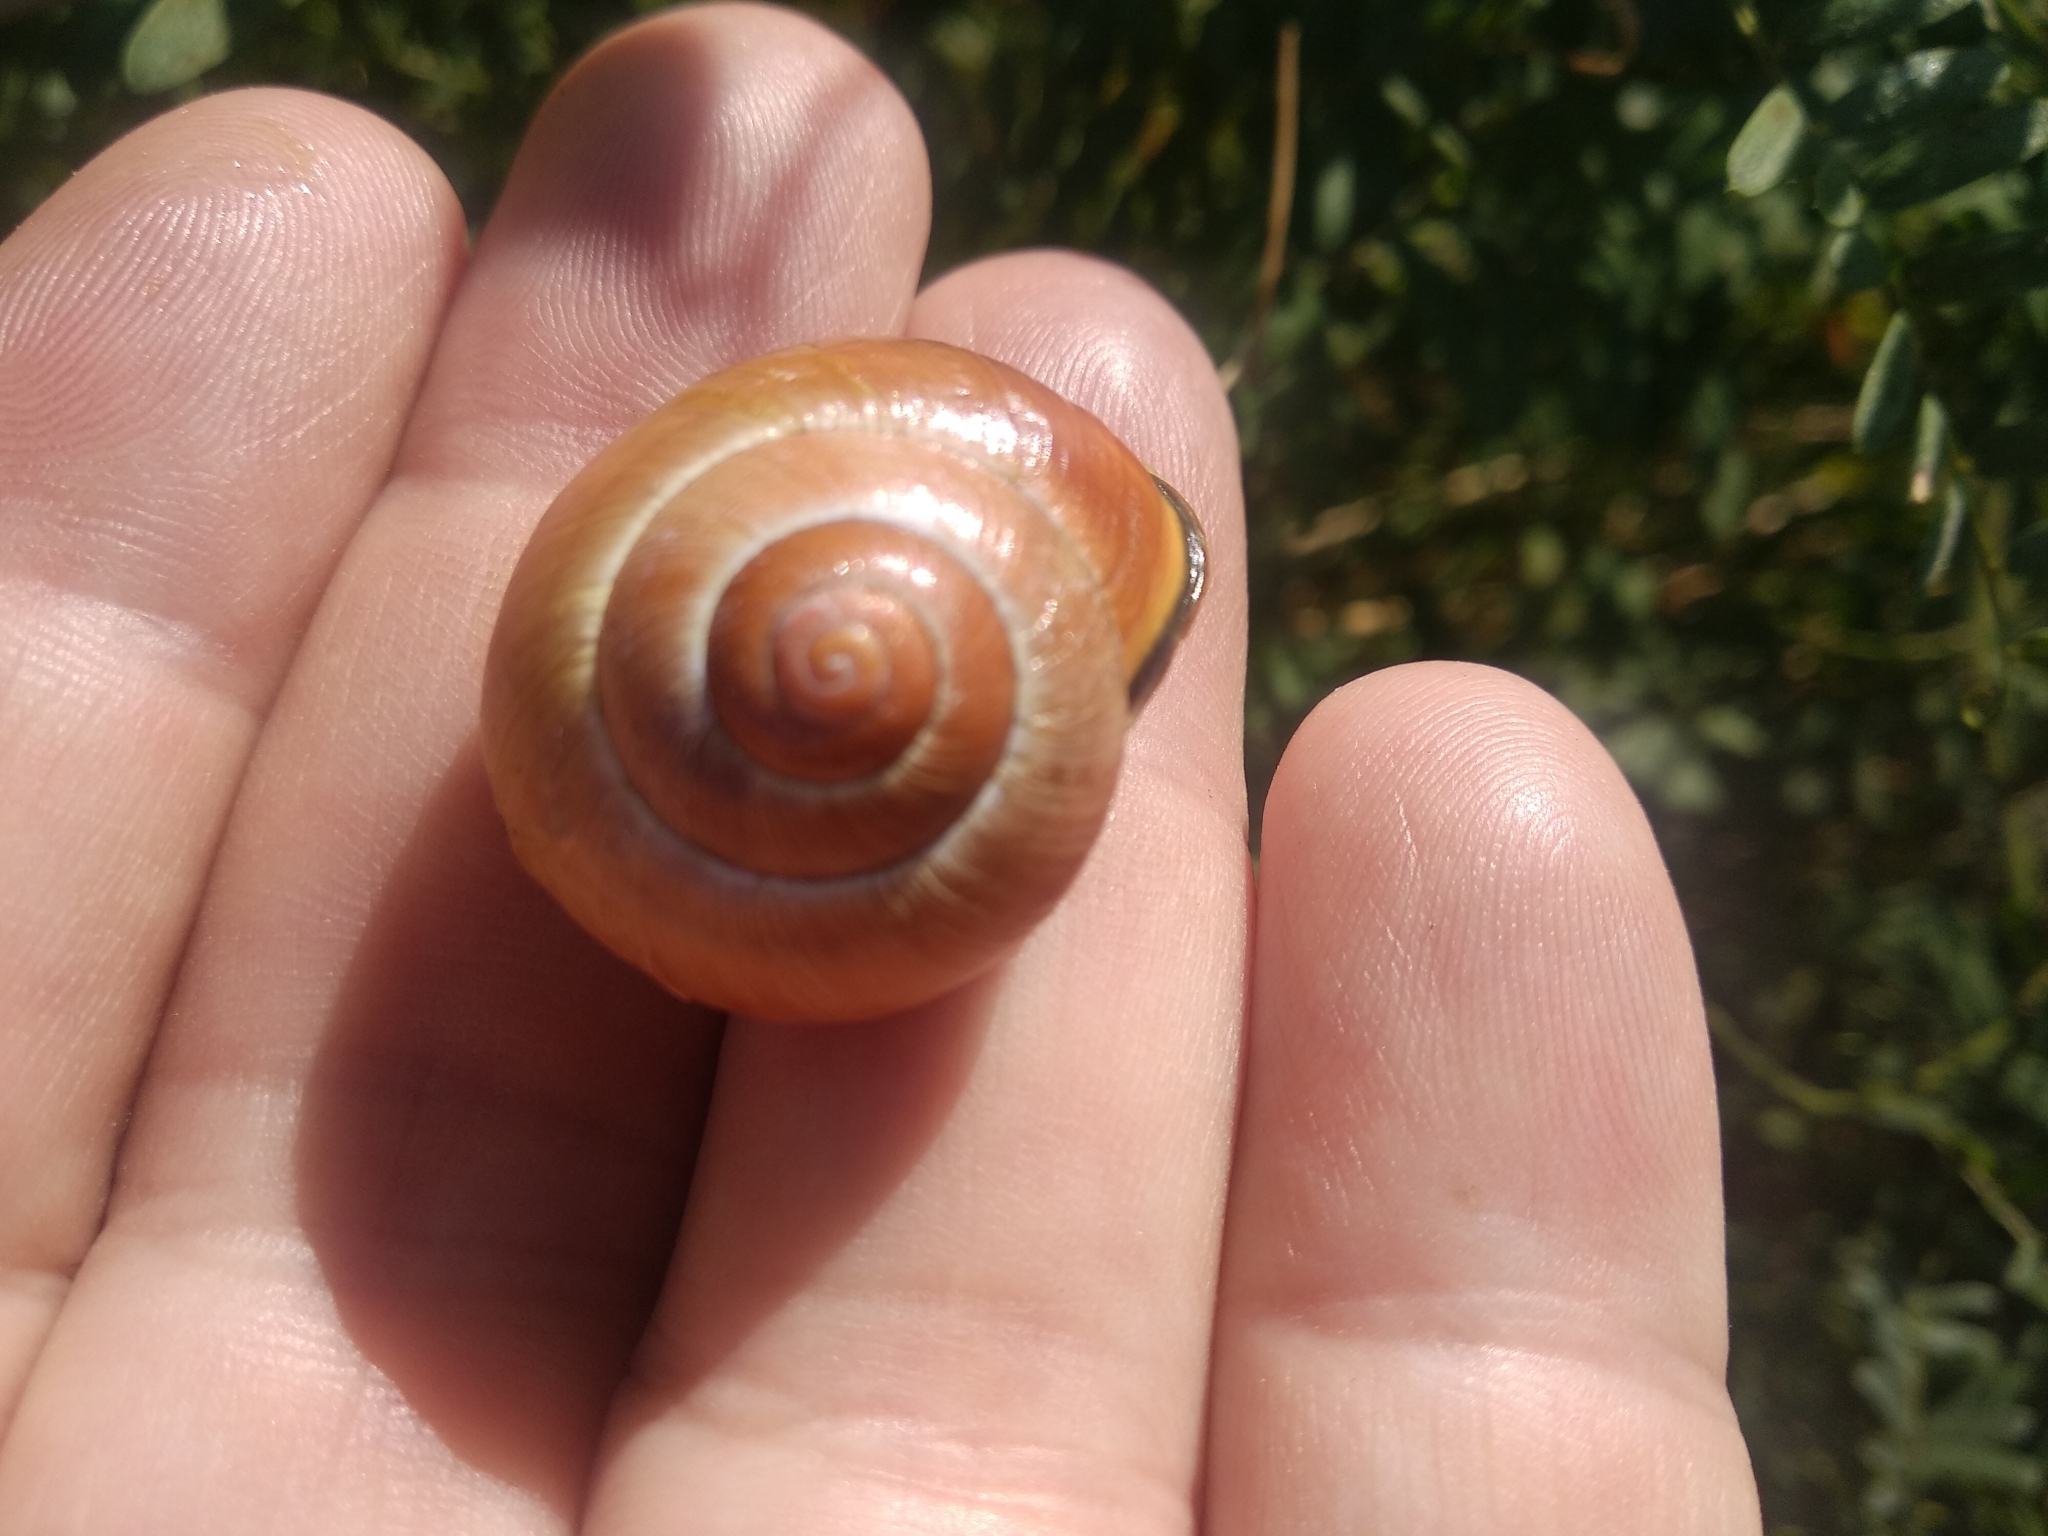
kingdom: Animalia
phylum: Mollusca
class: Gastropoda
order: Stylommatophora
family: Helicidae
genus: Cepaea
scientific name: Cepaea nemoralis
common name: Grovesnail
